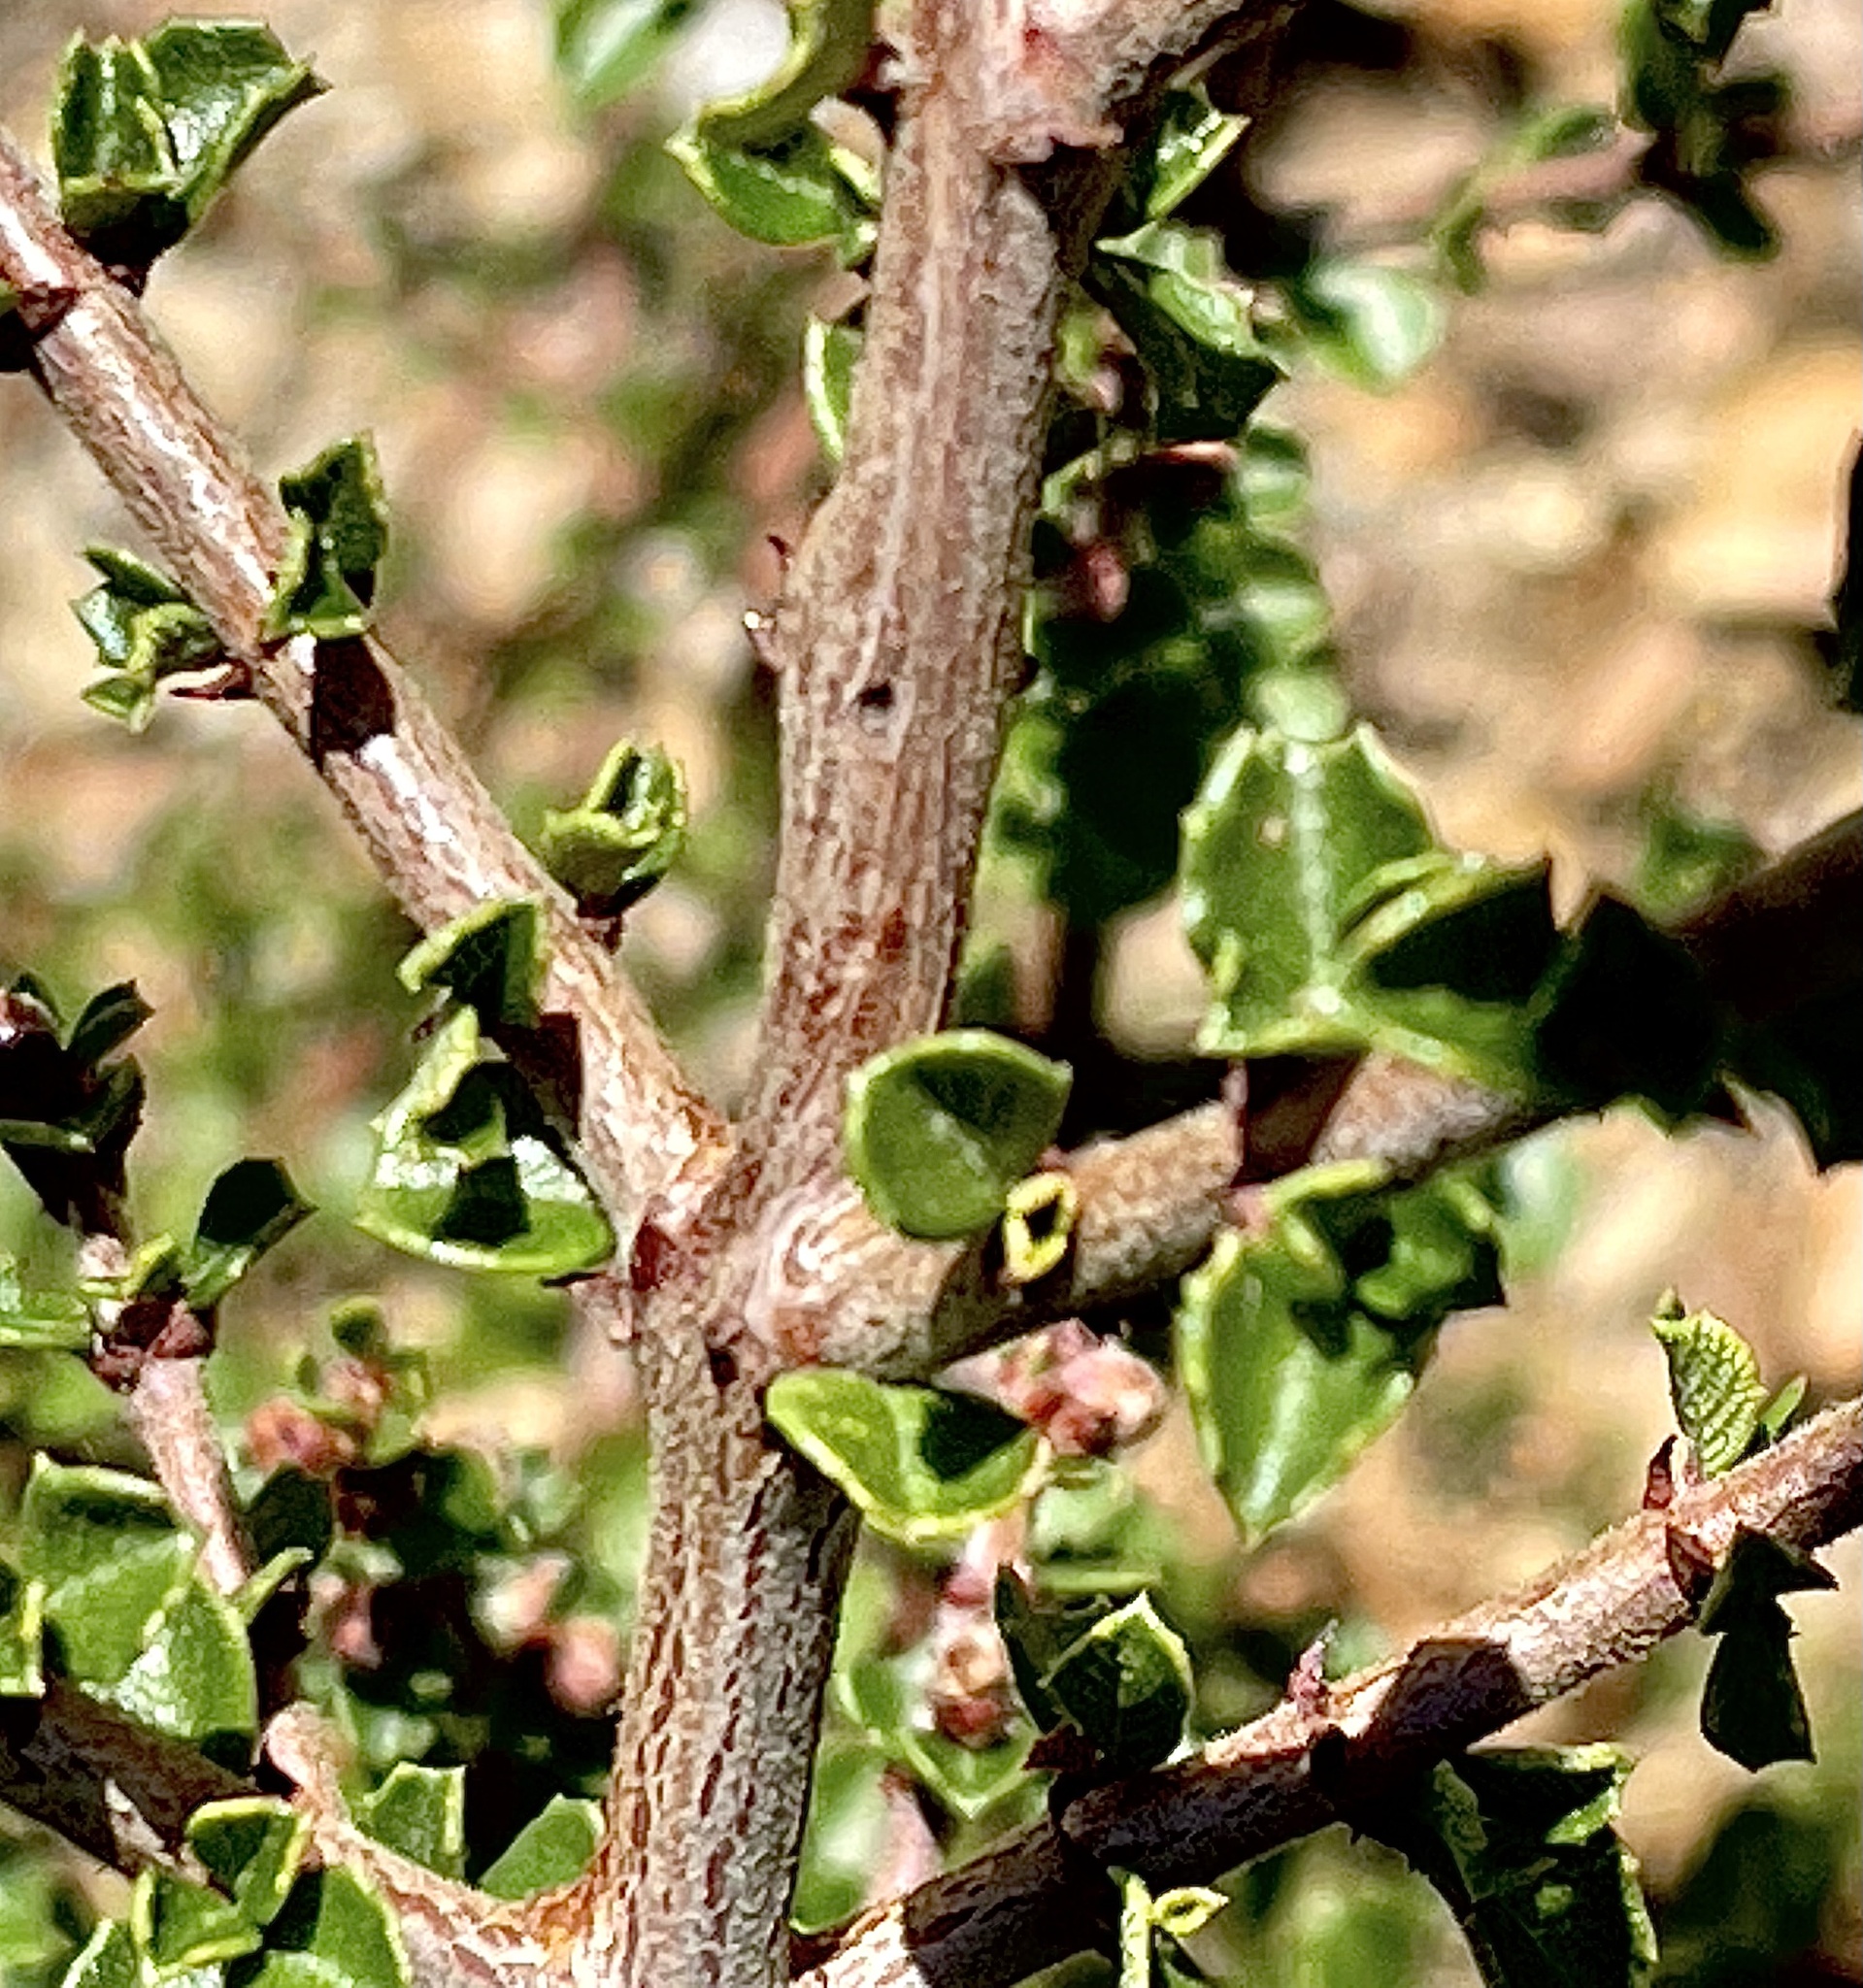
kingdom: Plantae
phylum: Tracheophyta
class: Magnoliopsida
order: Rosales
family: Rhamnaceae
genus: Ceanothus
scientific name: Ceanothus cuneatus
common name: Cuneate ceanothus
